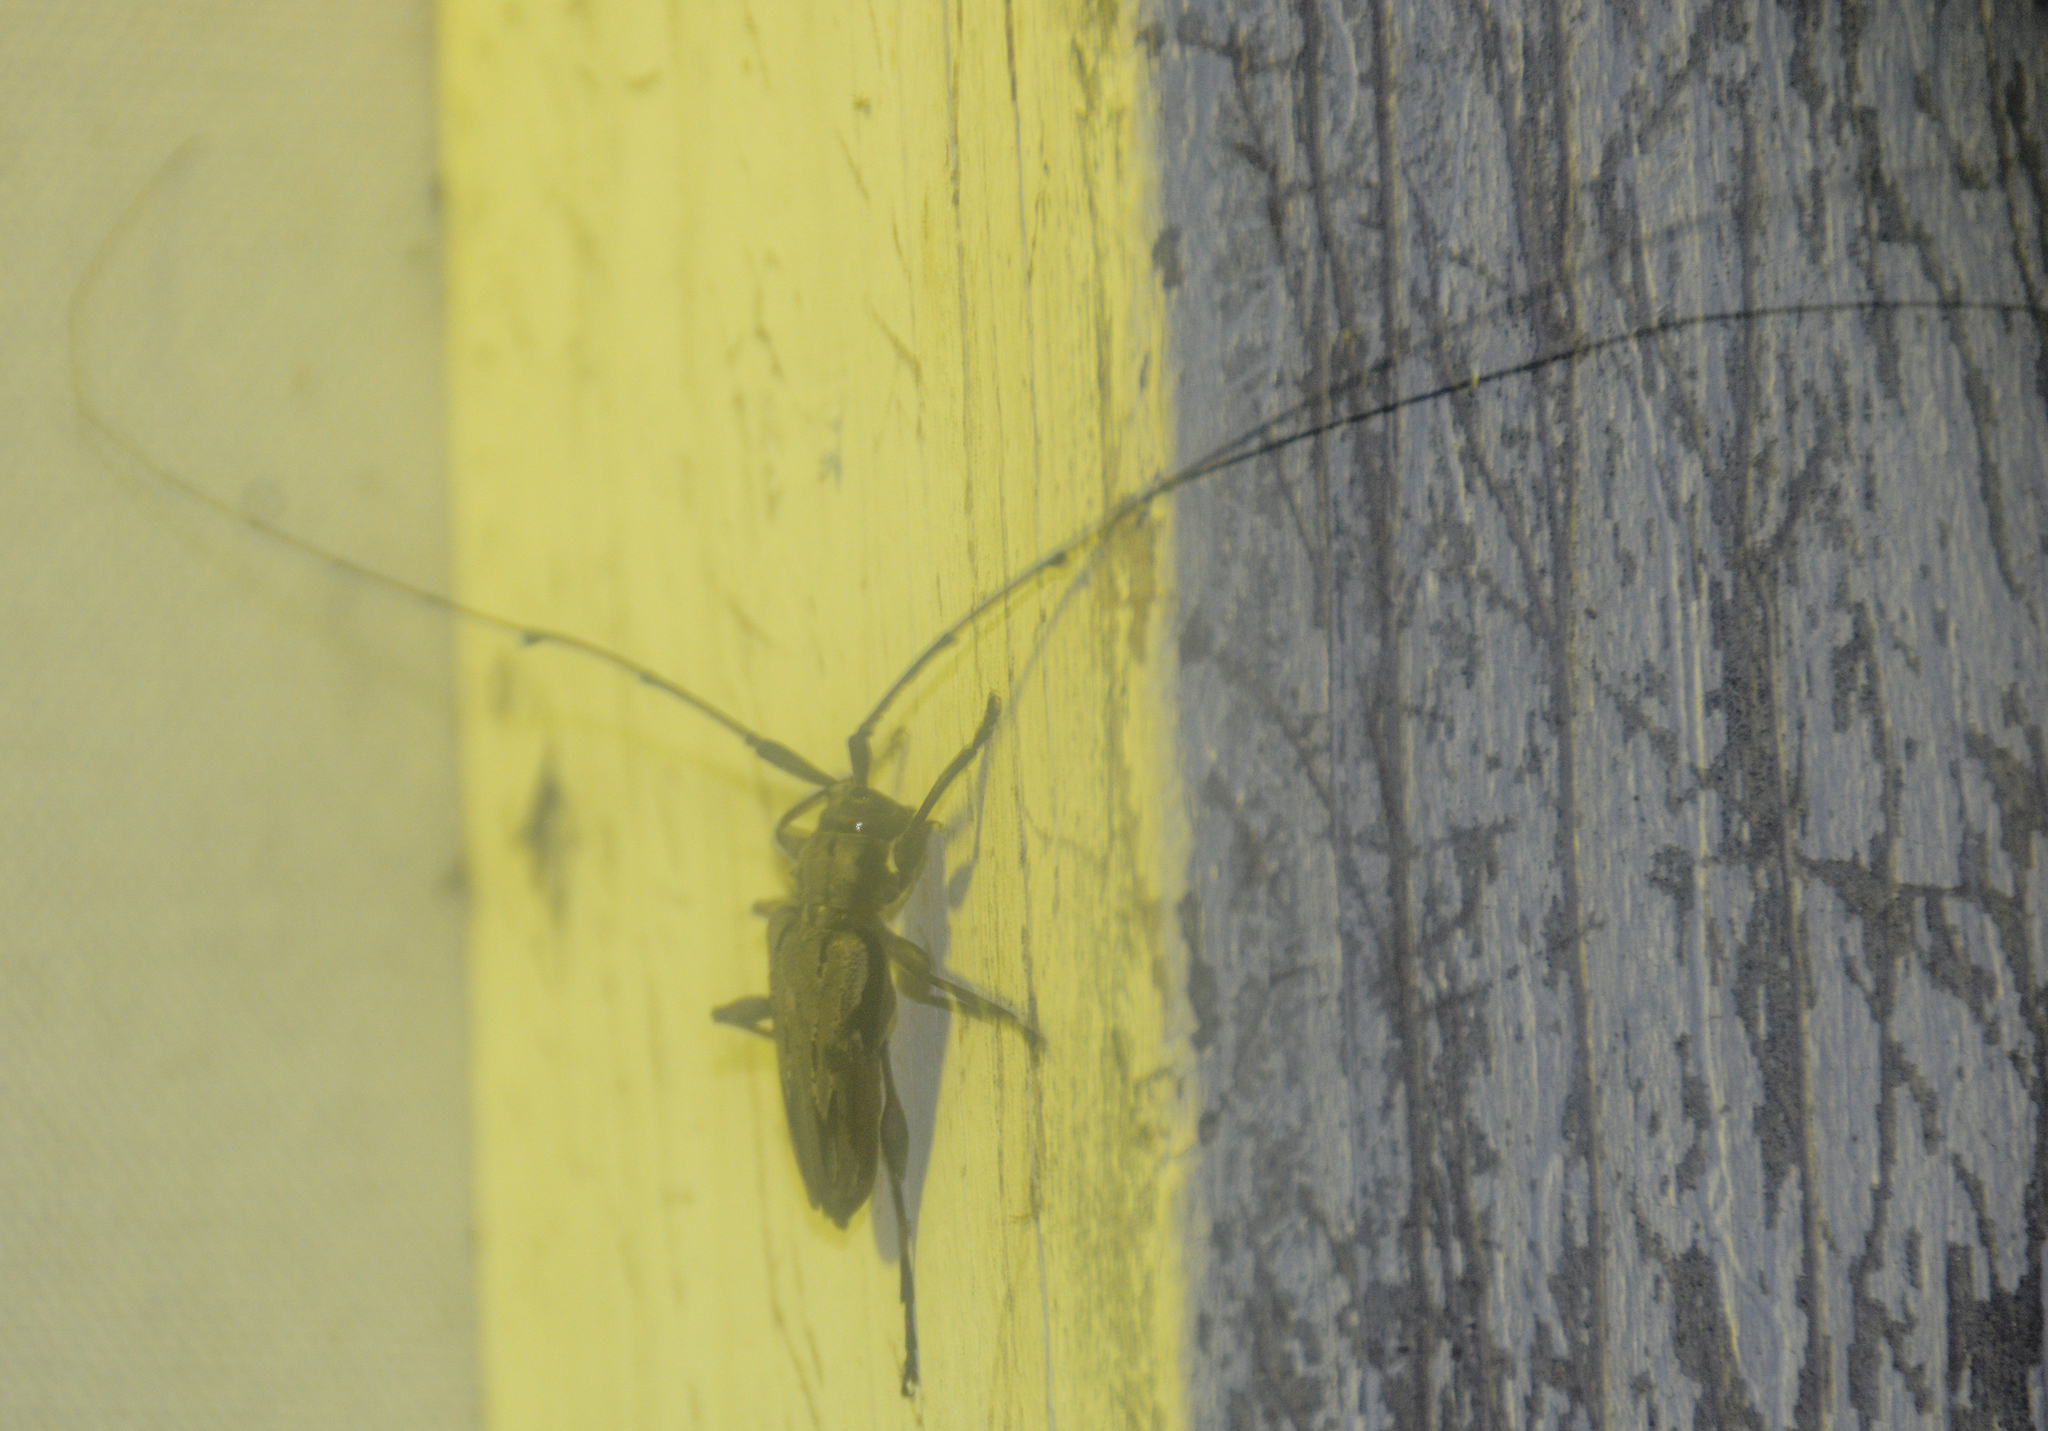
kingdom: Animalia
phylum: Arthropoda
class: Insecta
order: Coleoptera
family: Cerambycidae
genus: Acanthocinus
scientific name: Acanthocinus nodosus
